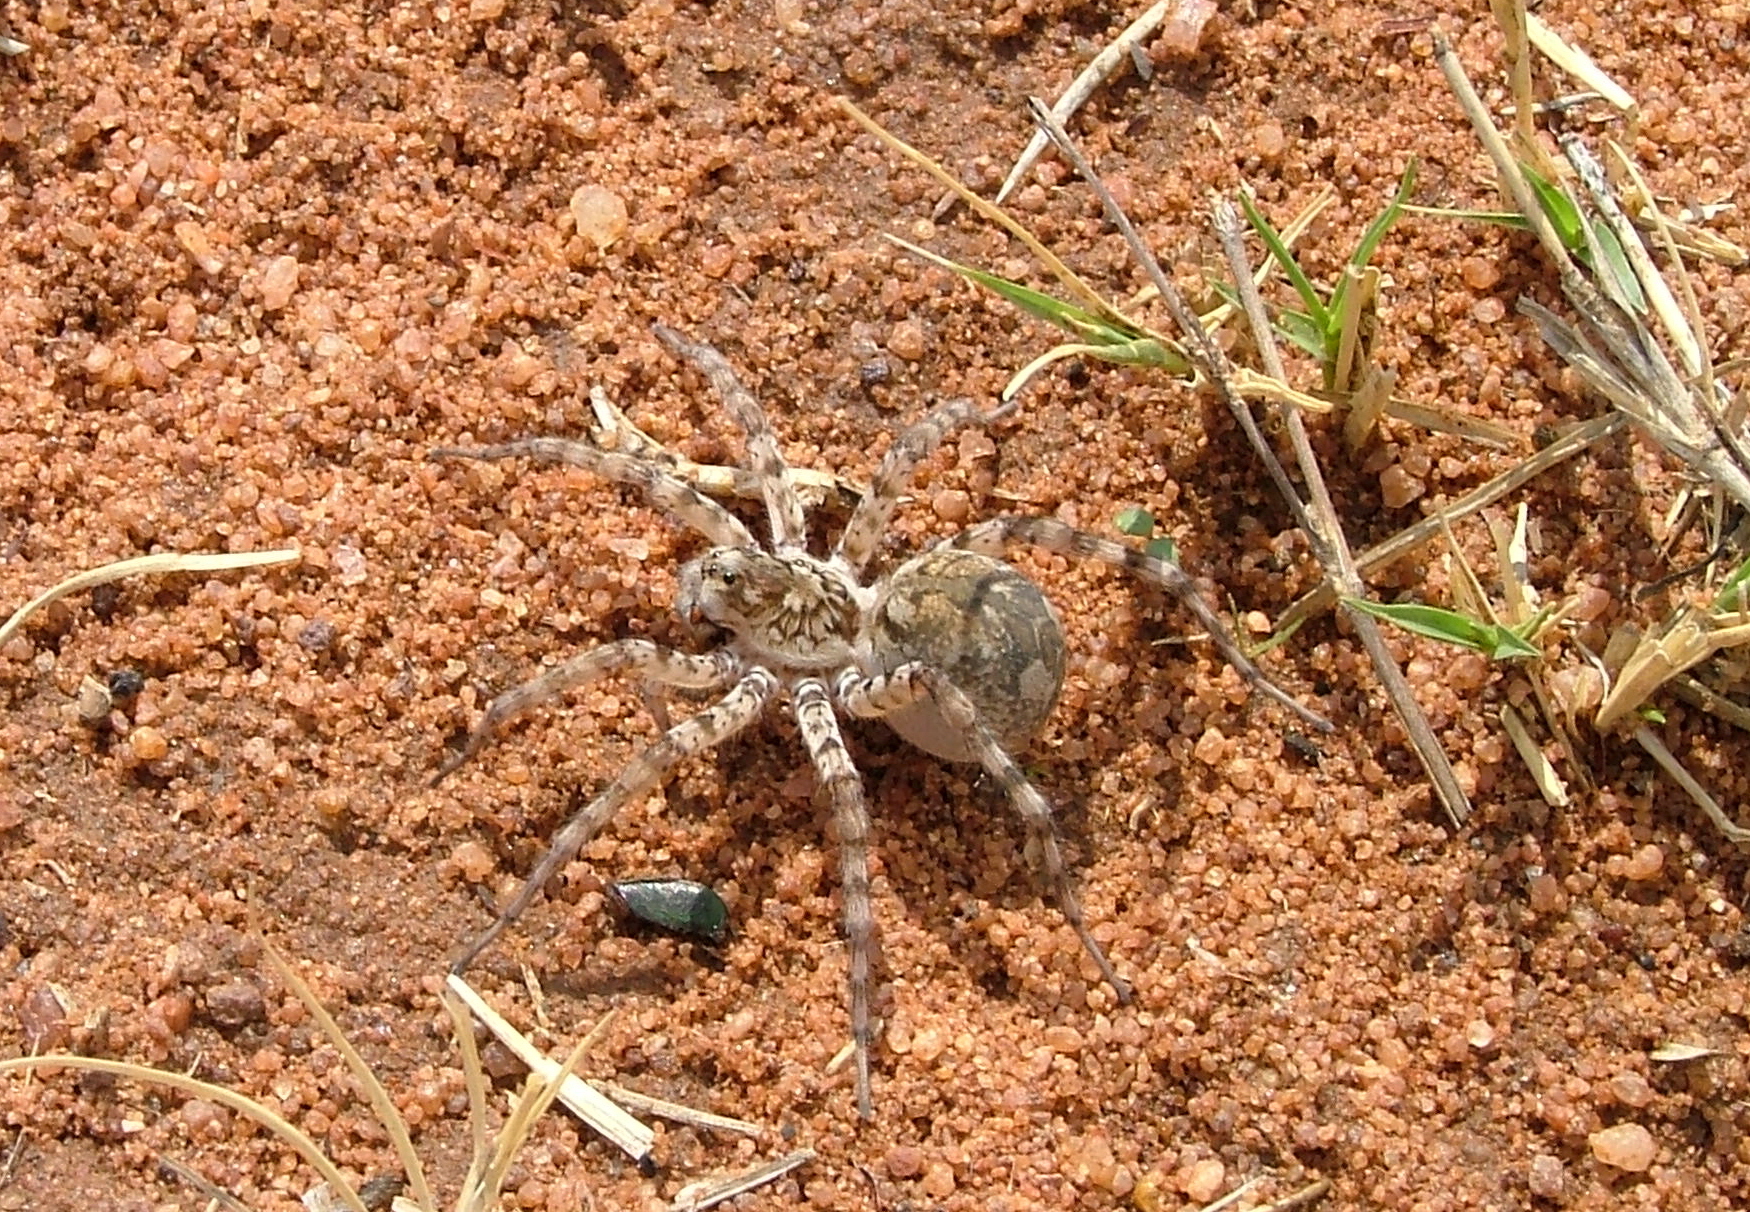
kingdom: Animalia
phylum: Arthropoda
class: Arachnida
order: Araneae
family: Lycosidae
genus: Ocyale
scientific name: Ocyale guttata
